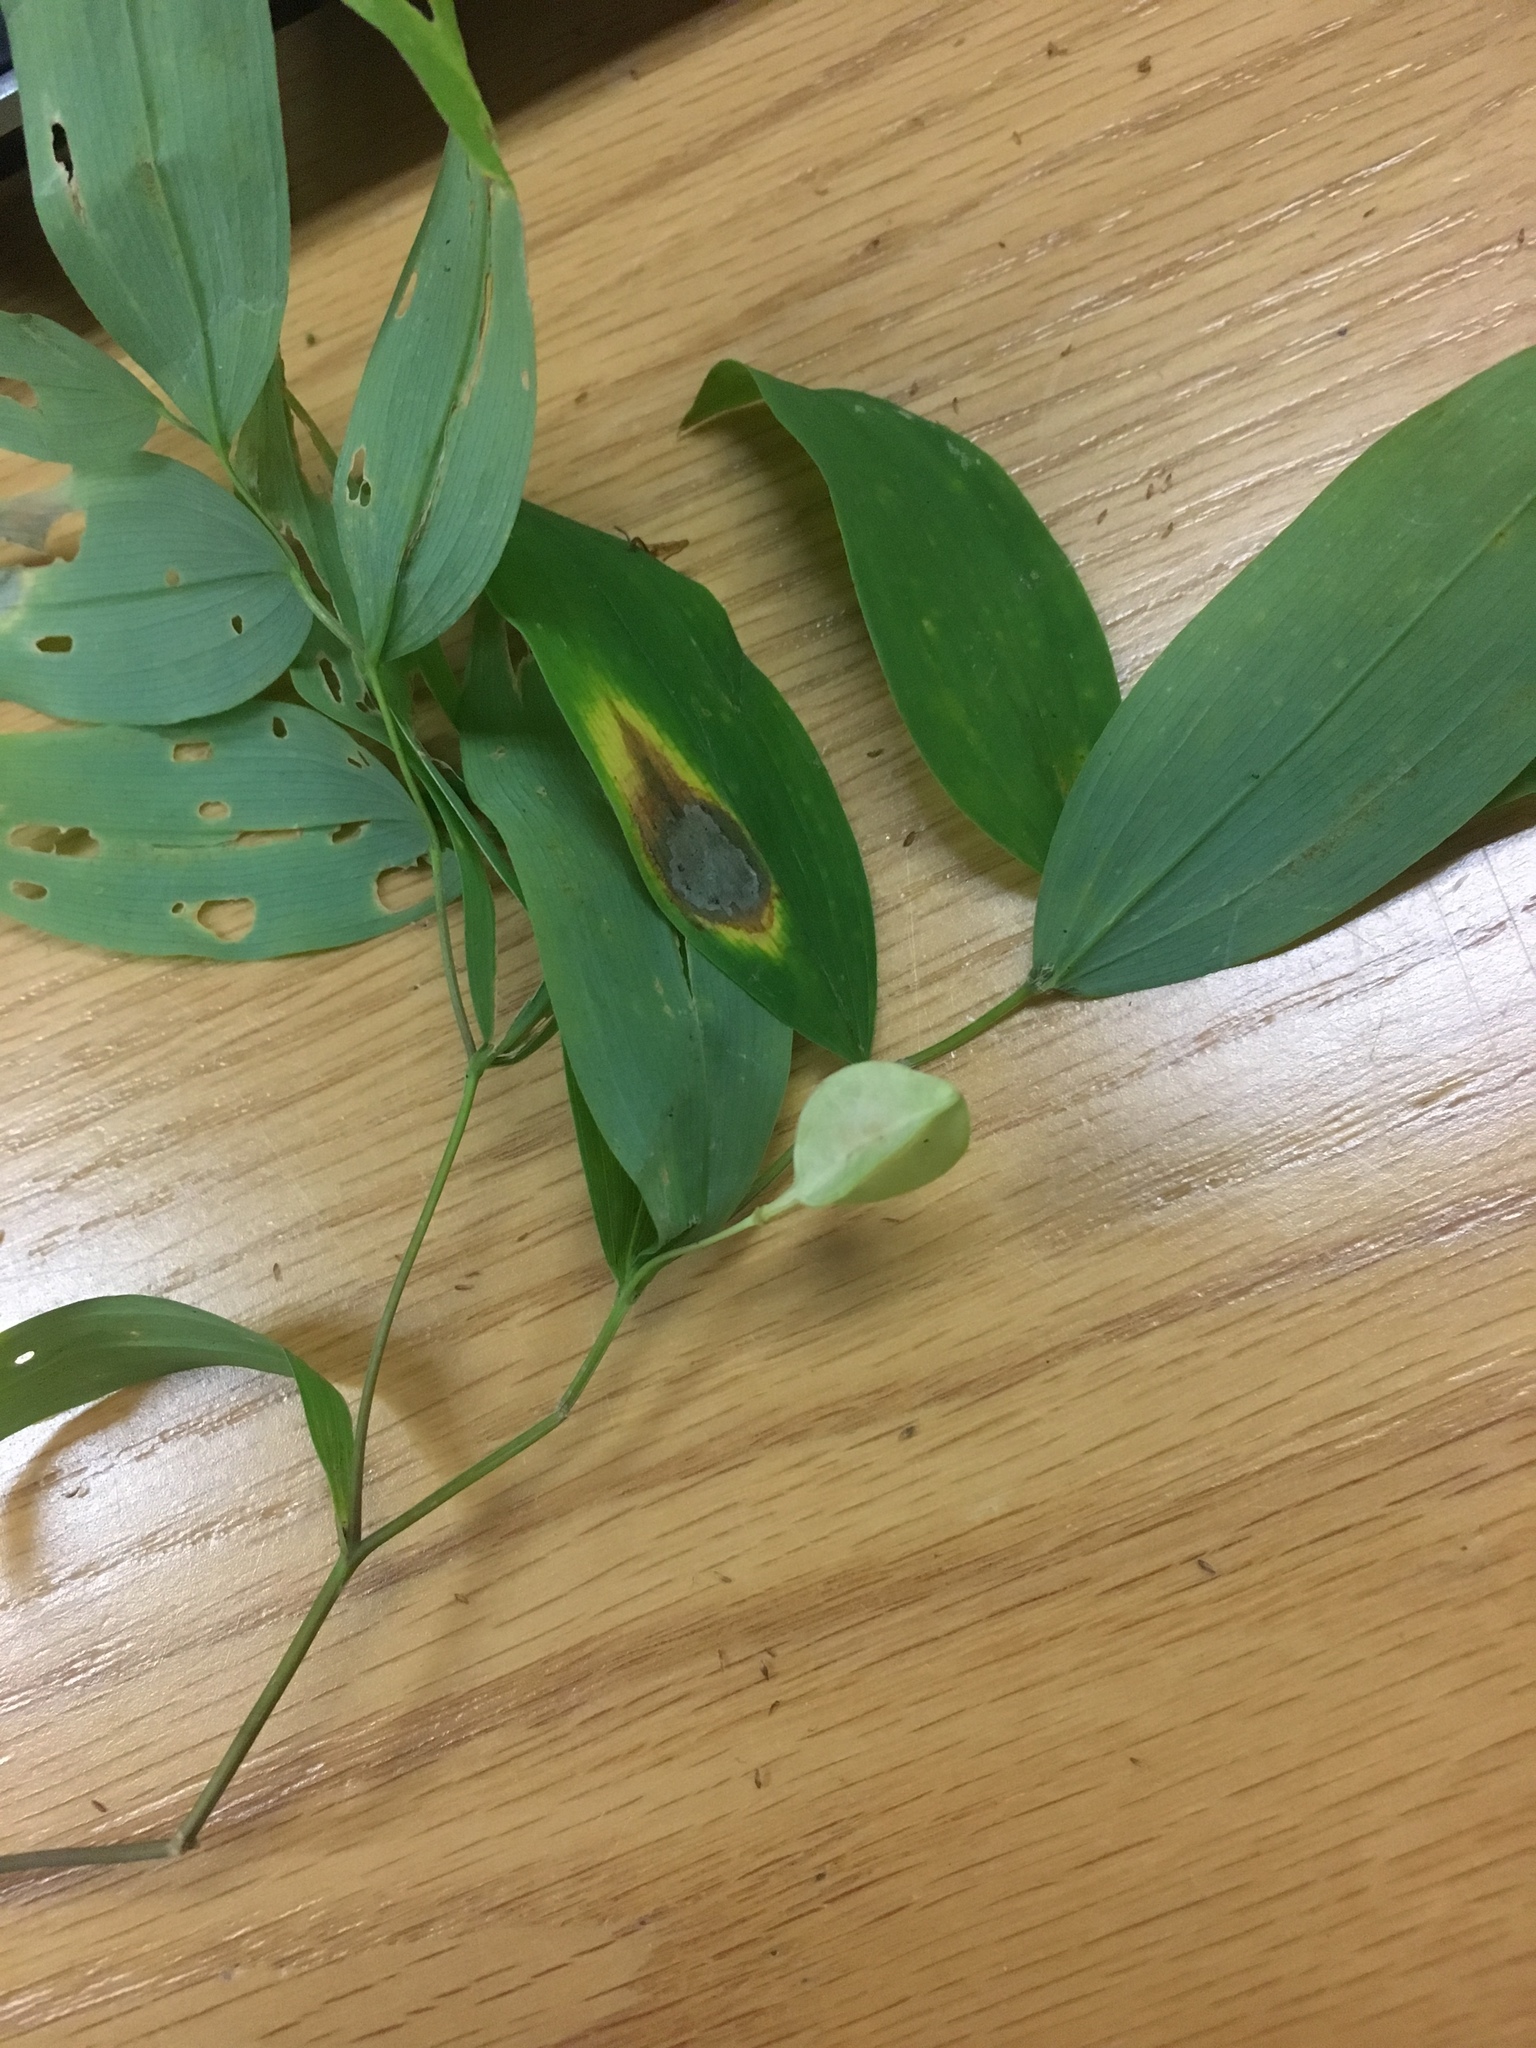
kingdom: Plantae
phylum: Tracheophyta
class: Liliopsida
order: Liliales
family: Colchicaceae
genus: Uvularia
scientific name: Uvularia sessilifolia
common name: Straw-lily
